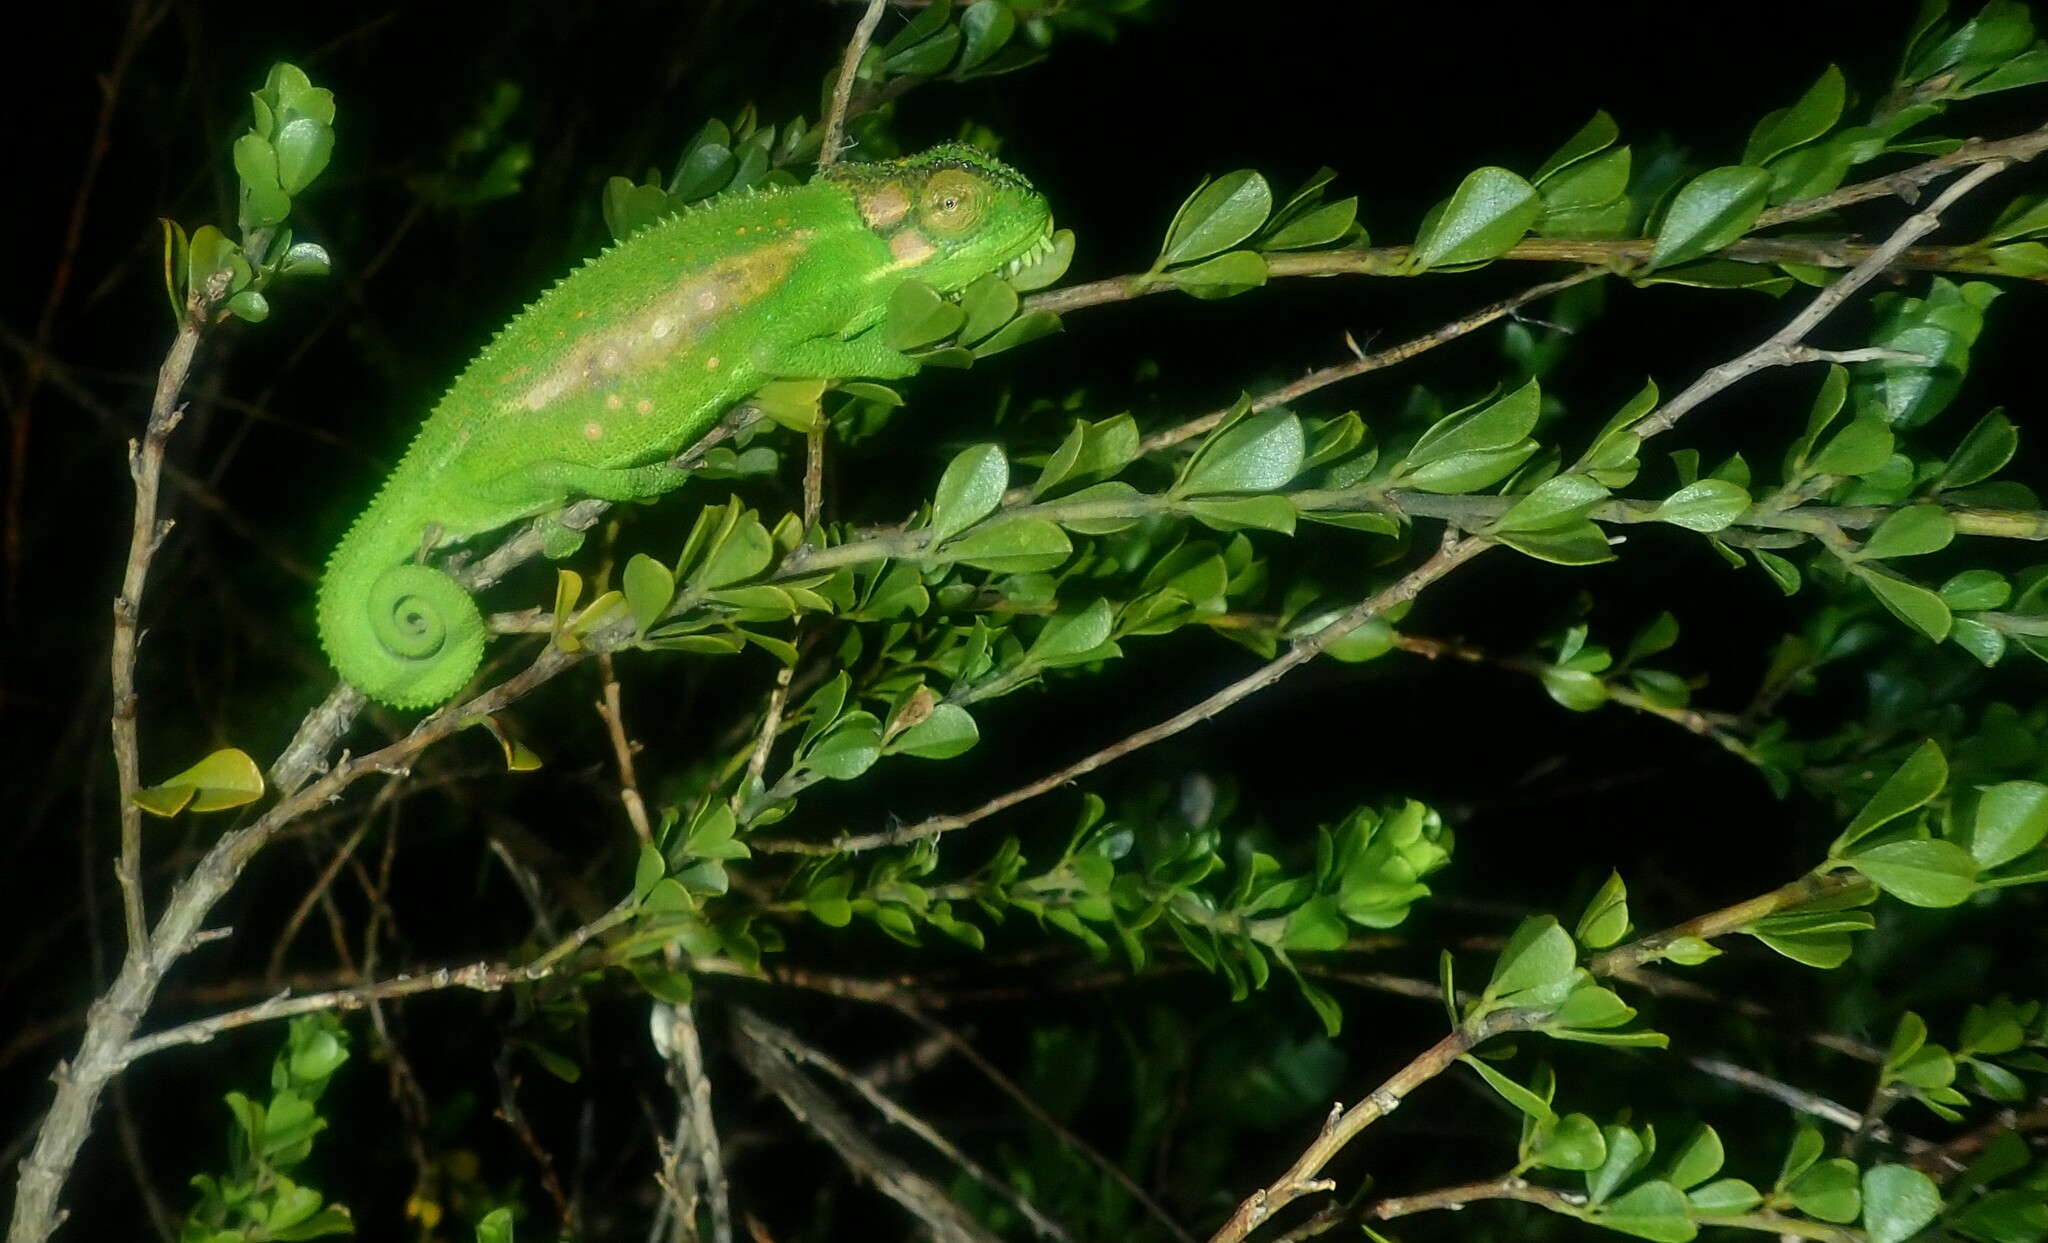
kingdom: Animalia
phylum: Chordata
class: Squamata
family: Chamaeleonidae
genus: Bradypodion
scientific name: Bradypodion pumilum
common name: Cape dwarf chameleon
